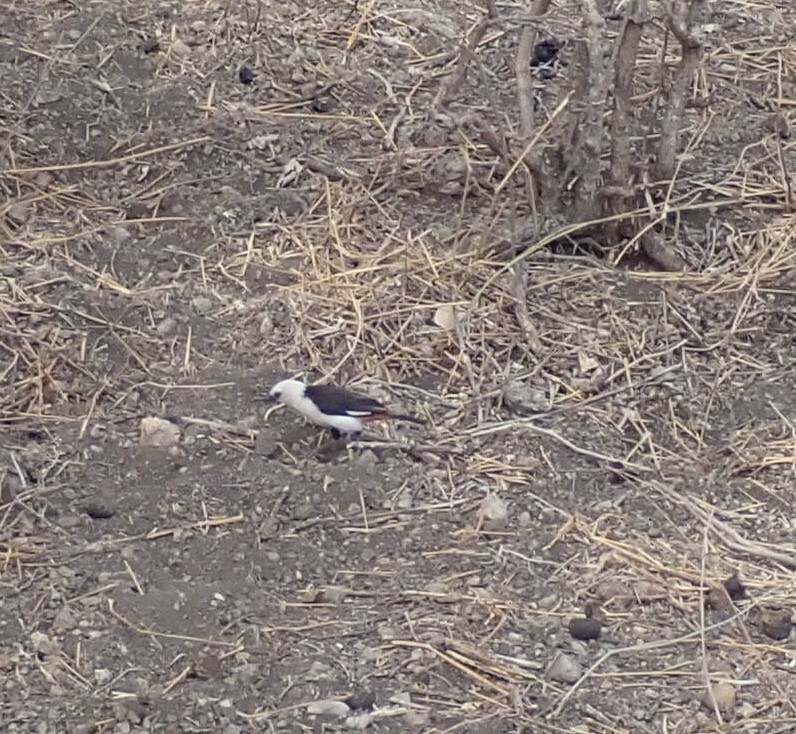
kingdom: Animalia
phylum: Chordata
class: Aves
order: Passeriformes
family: Ploceidae
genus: Dinemellia
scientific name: Dinemellia dinemelli
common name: White-headed buffalo weaver
